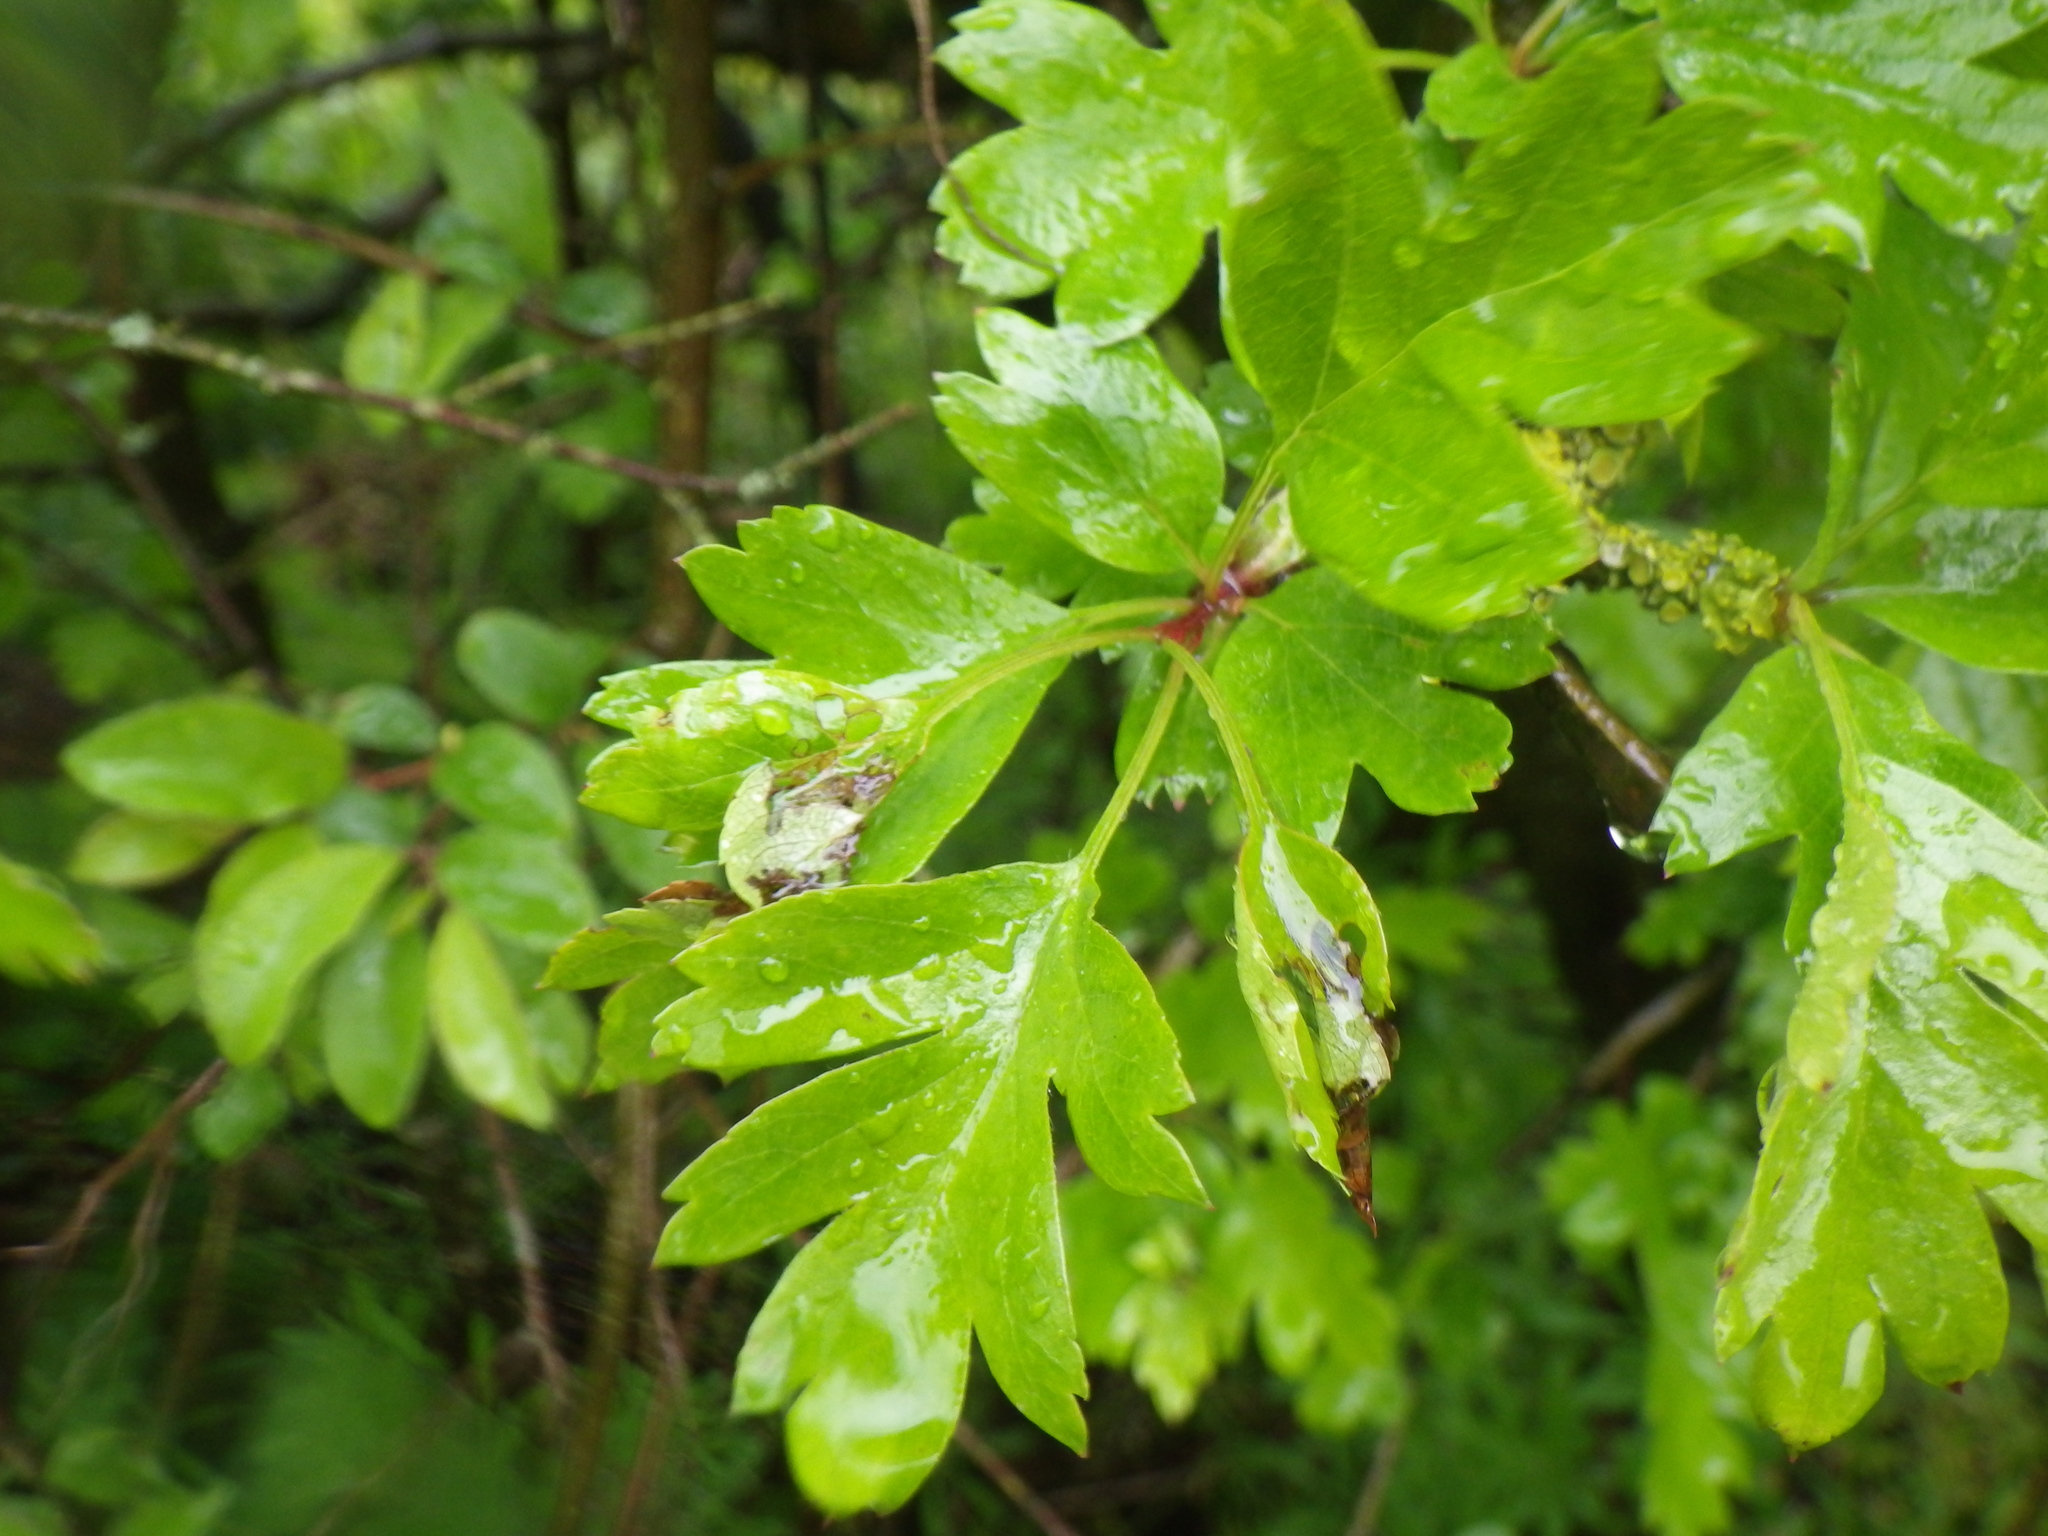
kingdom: Plantae
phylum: Tracheophyta
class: Magnoliopsida
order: Rosales
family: Rosaceae
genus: Crataegus
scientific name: Crataegus monogyna
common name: Hawthorn
